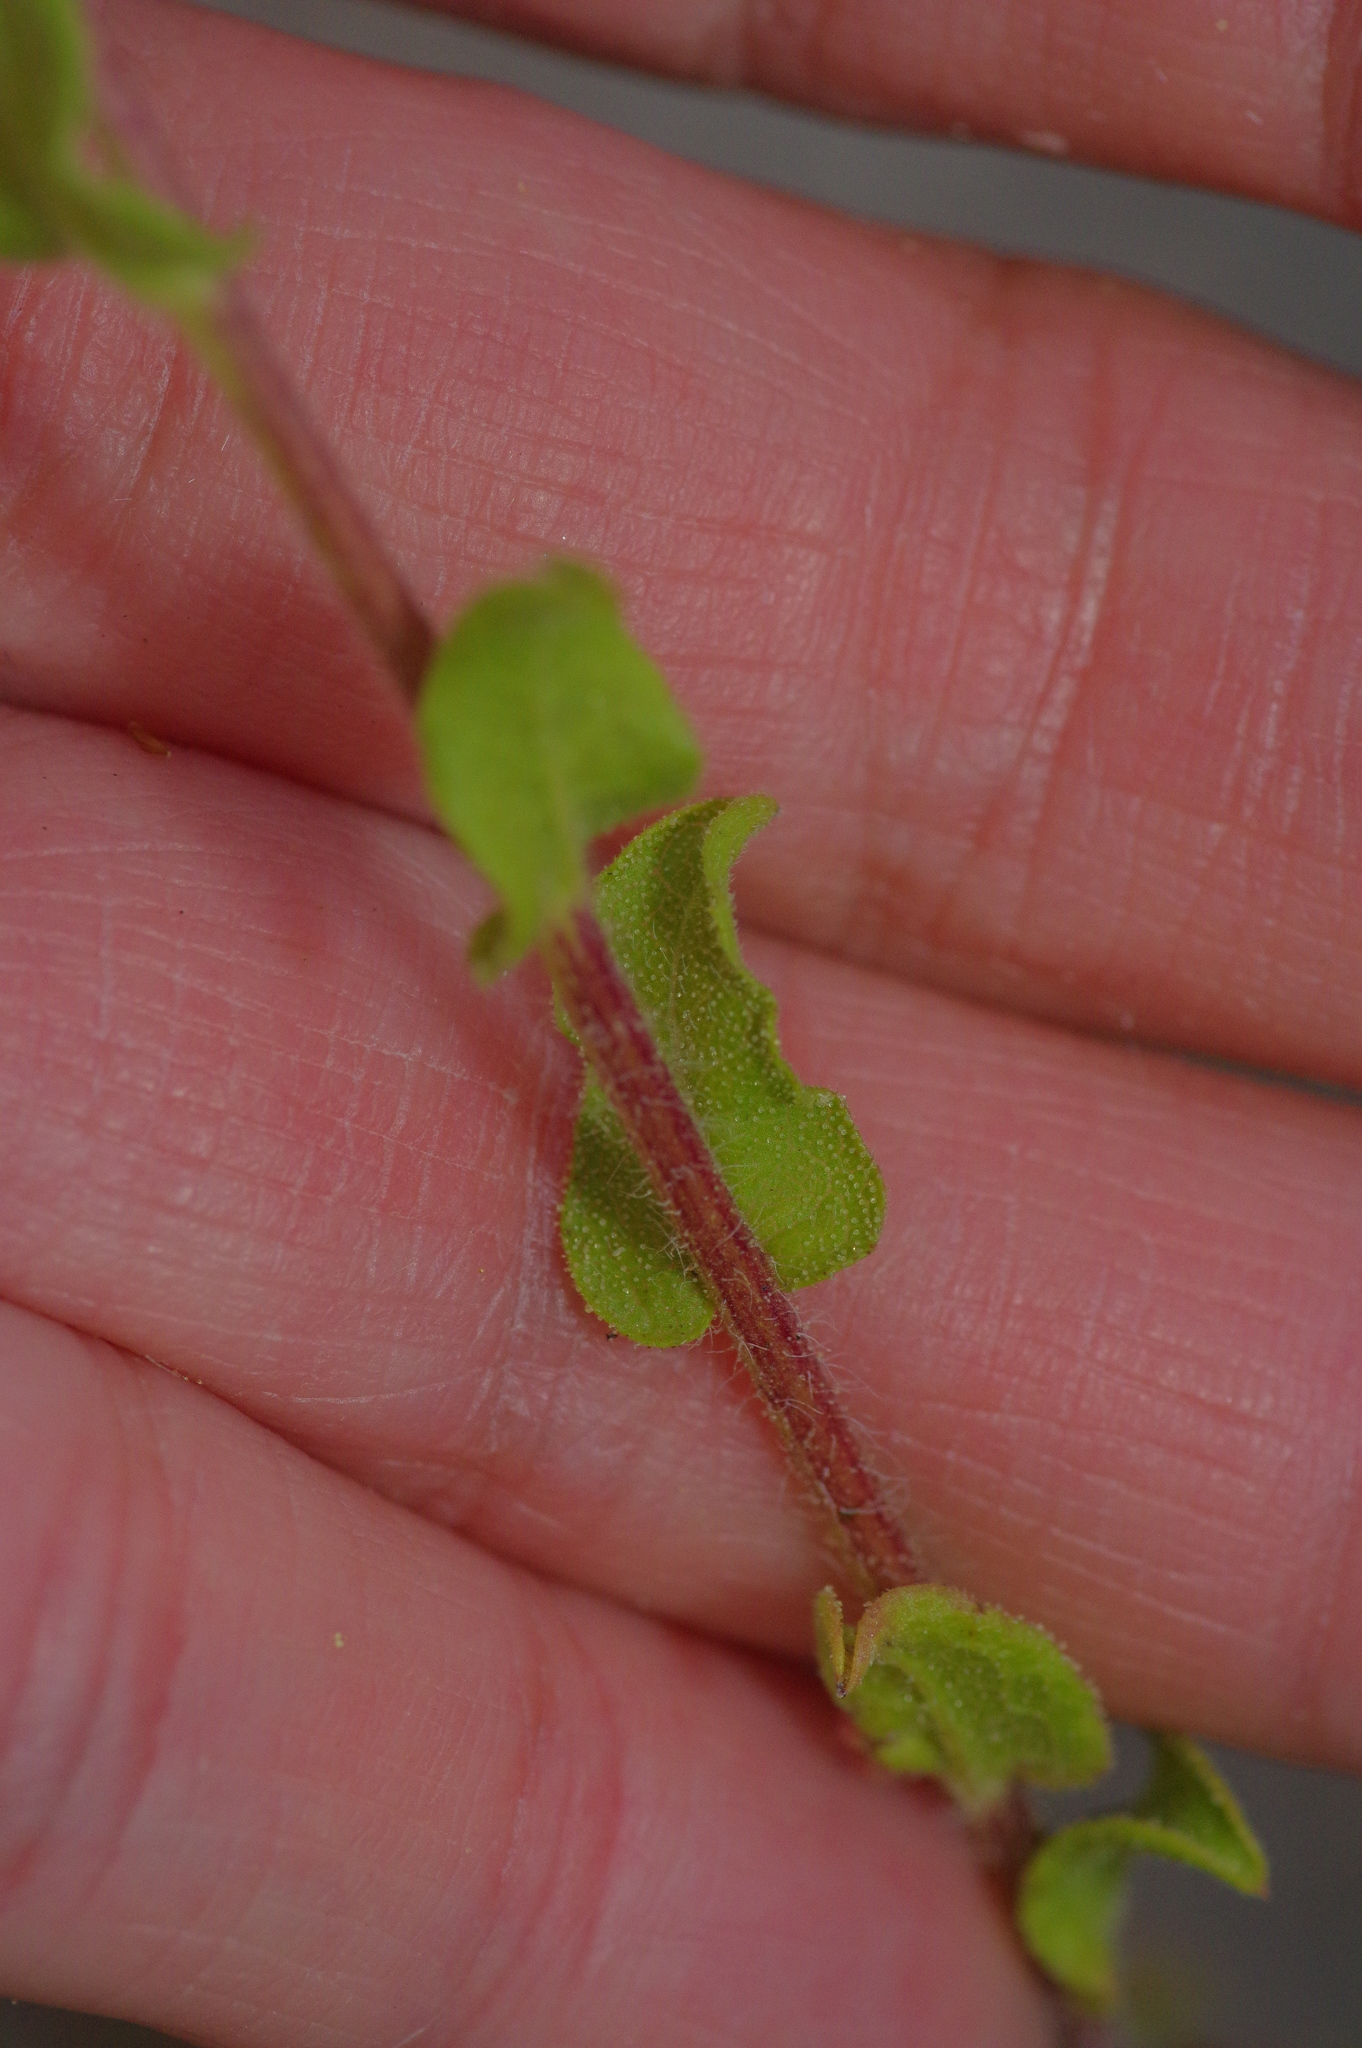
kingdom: Plantae
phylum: Tracheophyta
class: Magnoliopsida
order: Asterales
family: Asteraceae
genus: Heterotheca
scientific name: Heterotheca subaxillaris
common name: Camphorweed
